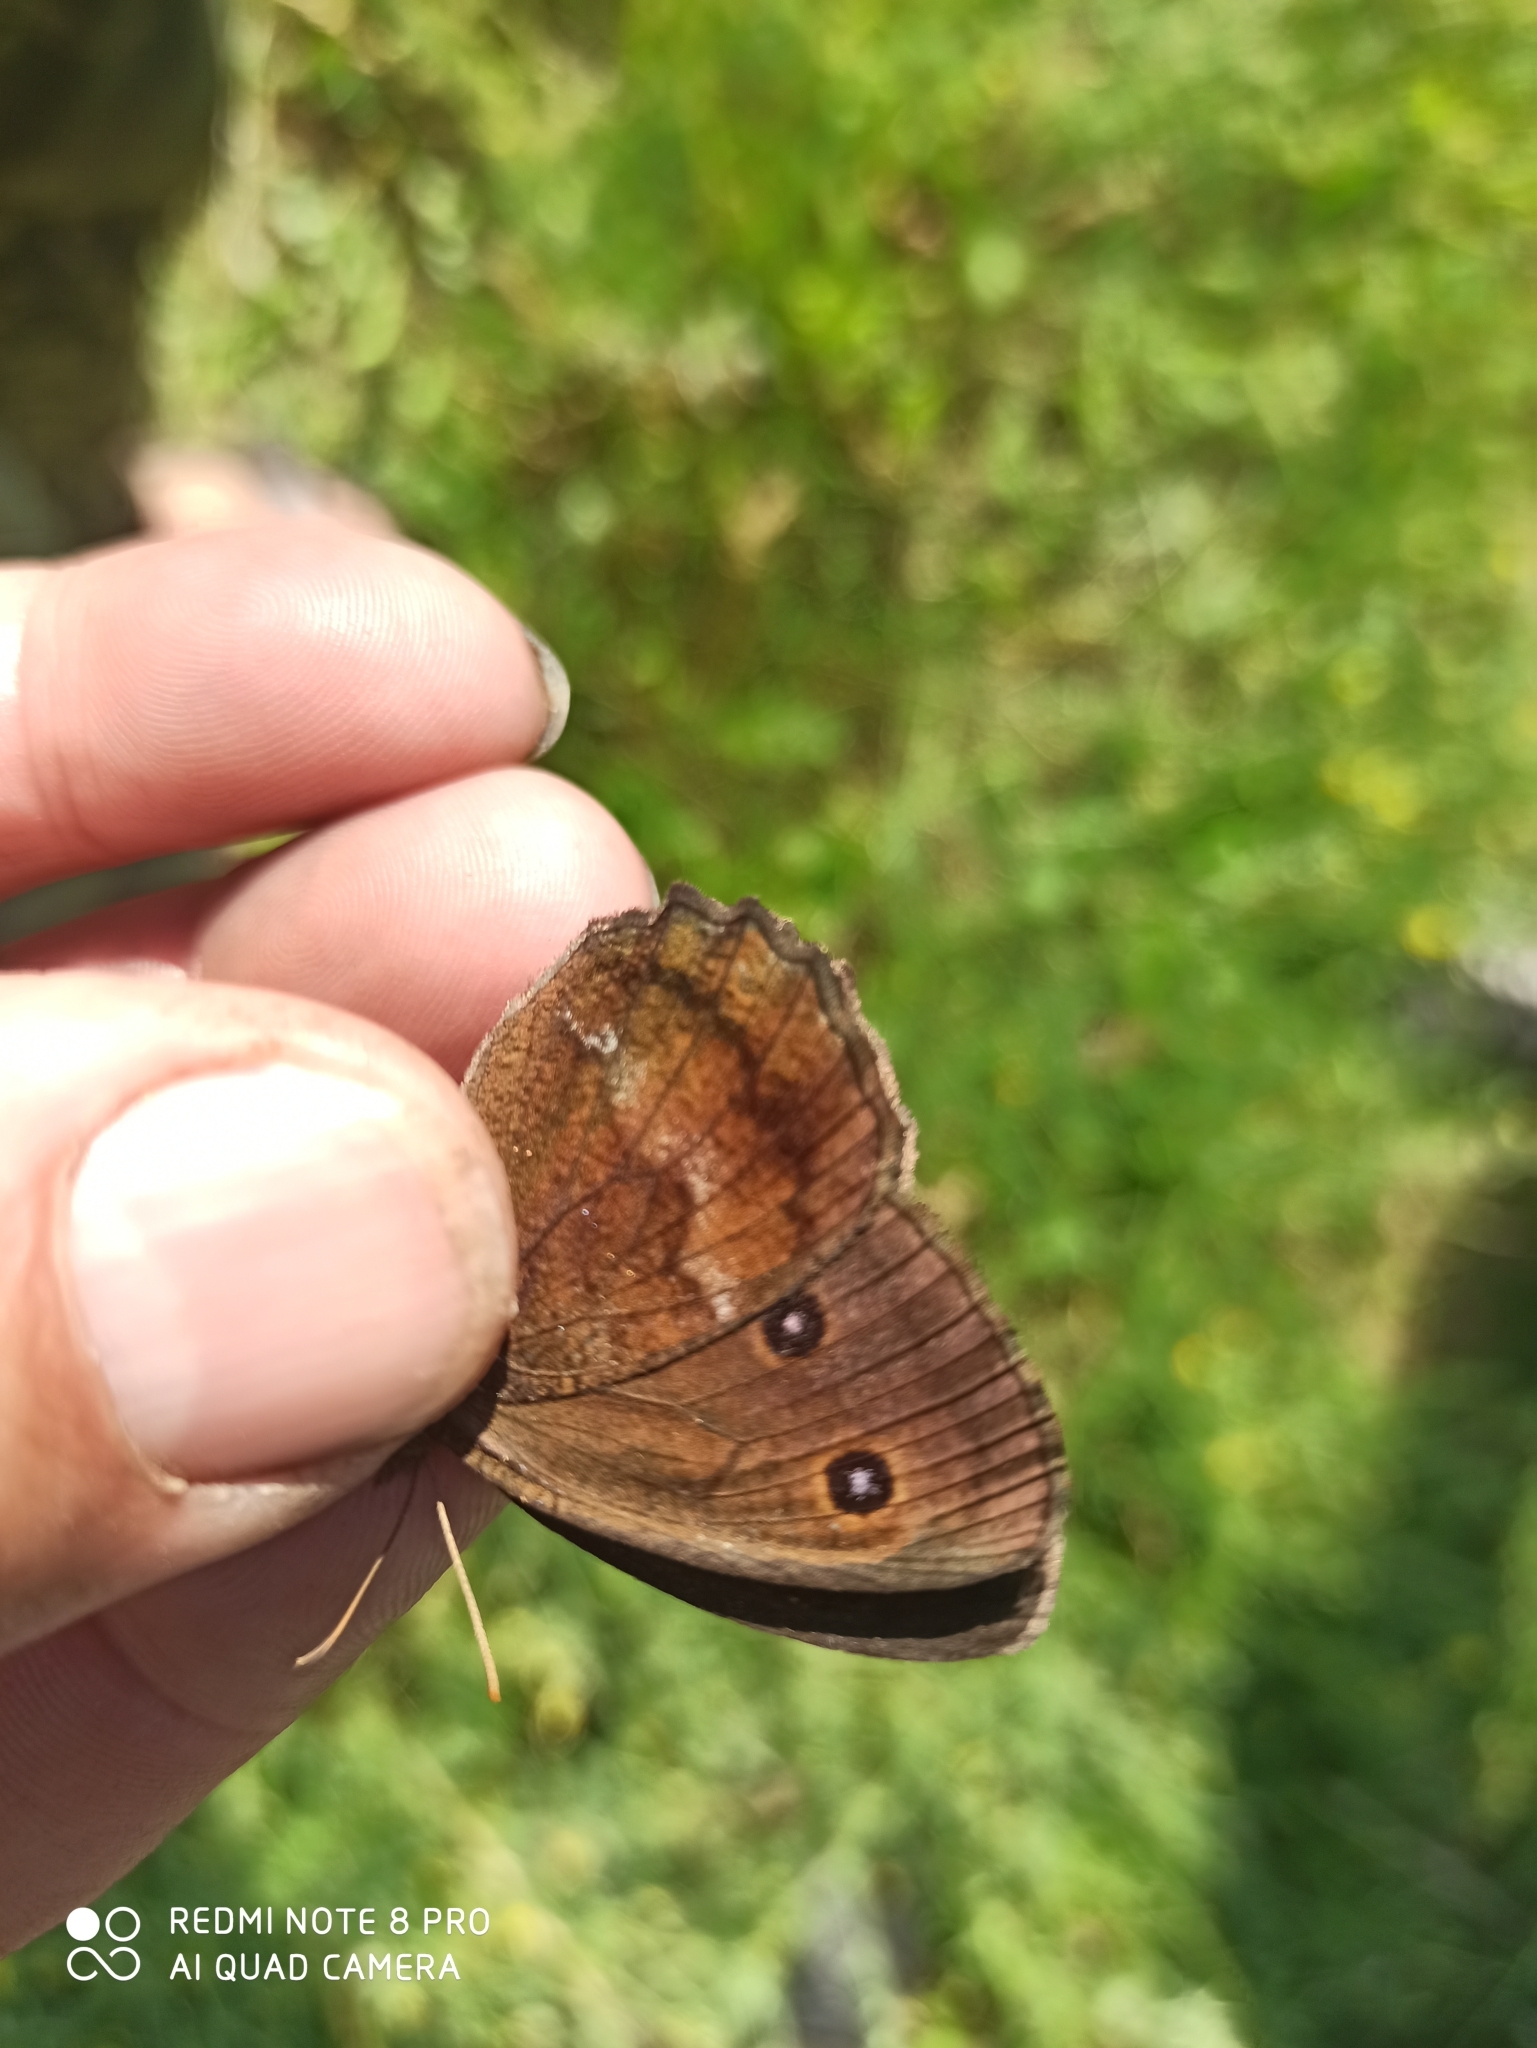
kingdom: Animalia
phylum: Arthropoda
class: Insecta
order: Lepidoptera
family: Nymphalidae
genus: Minois
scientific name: Minois dryas
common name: Dryad
